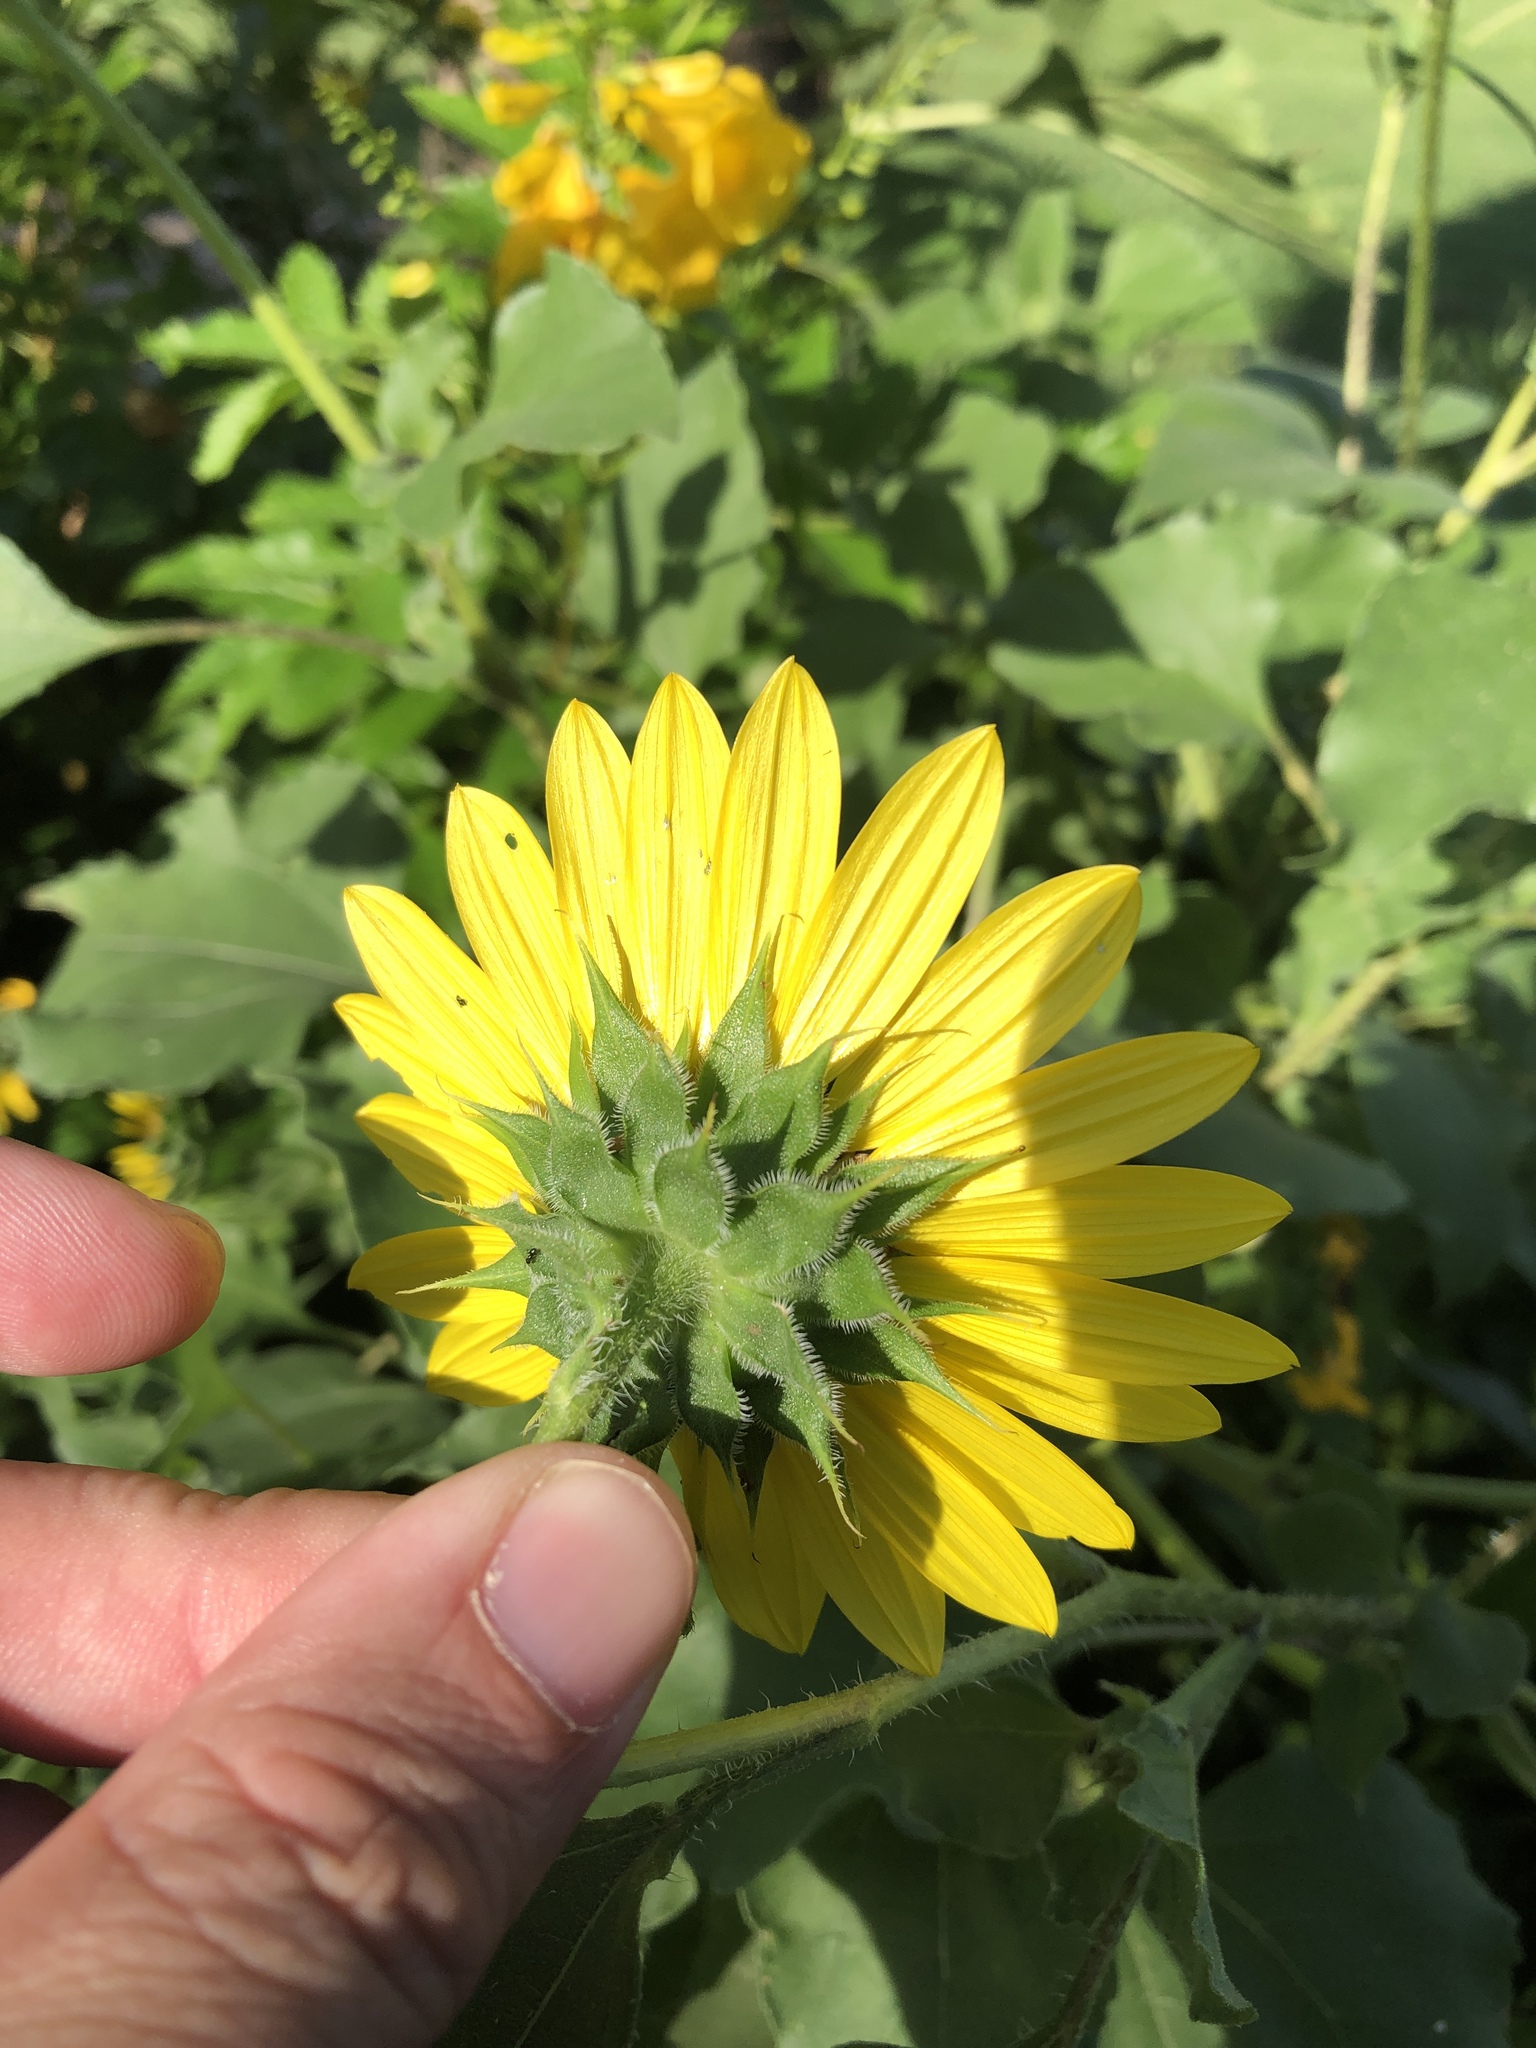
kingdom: Plantae
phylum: Tracheophyta
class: Magnoliopsida
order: Asterales
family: Asteraceae
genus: Helianthus
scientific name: Helianthus annuus
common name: Sunflower
